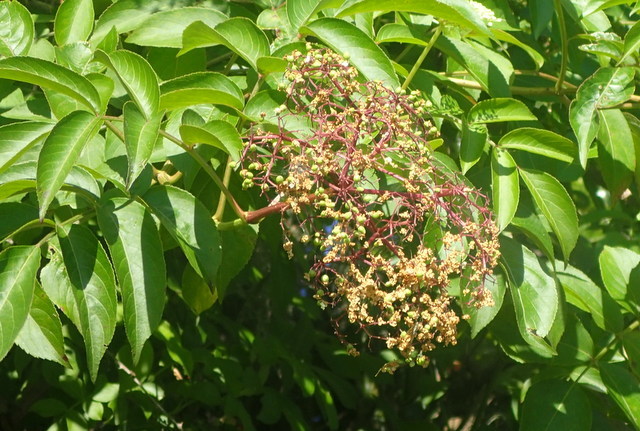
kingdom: Plantae
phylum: Tracheophyta
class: Magnoliopsida
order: Dipsacales
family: Viburnaceae
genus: Sambucus
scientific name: Sambucus canadensis
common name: American elder
